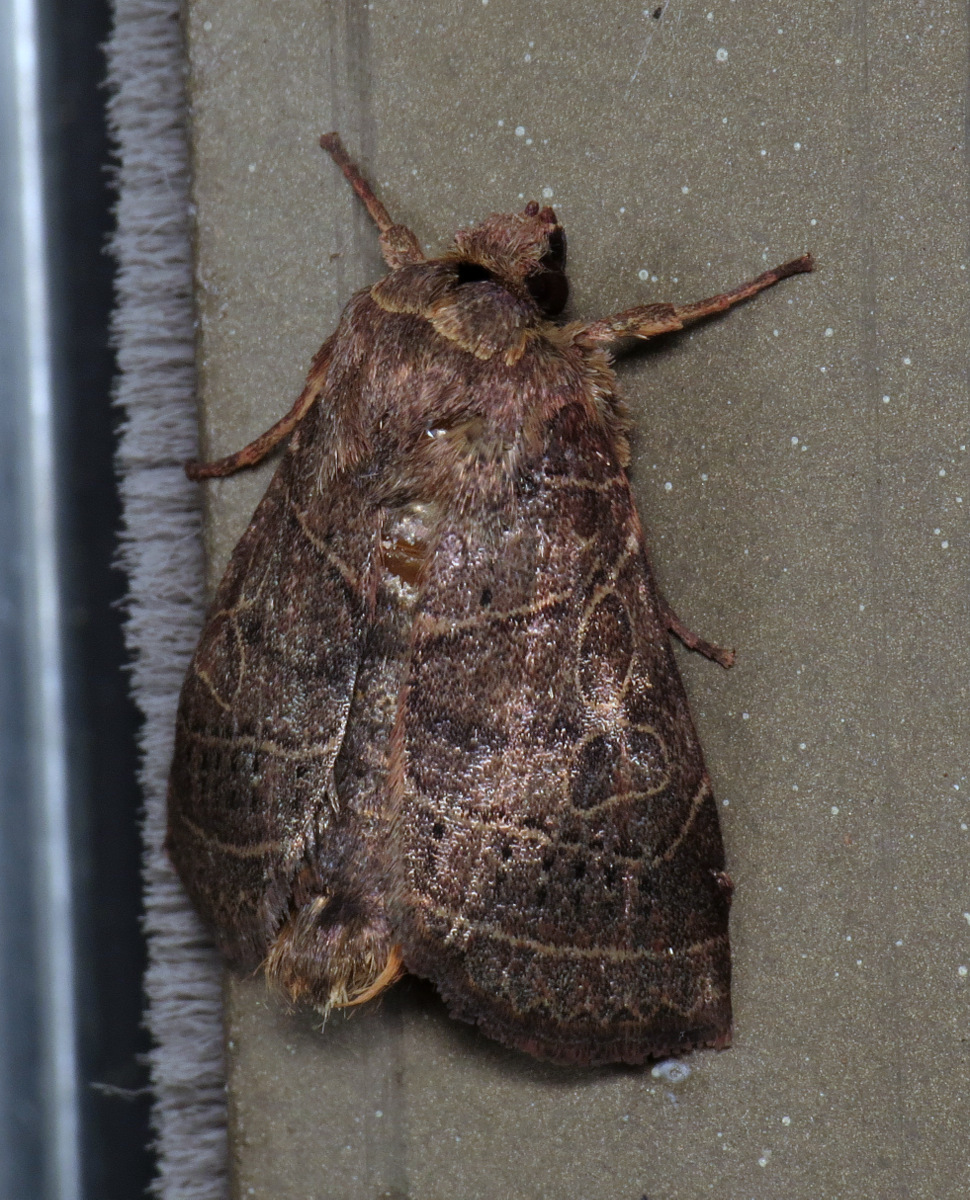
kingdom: Animalia
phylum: Arthropoda
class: Insecta
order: Lepidoptera
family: Noctuidae
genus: Orthodes
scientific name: Orthodes majuscula
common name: Rustic quaker
